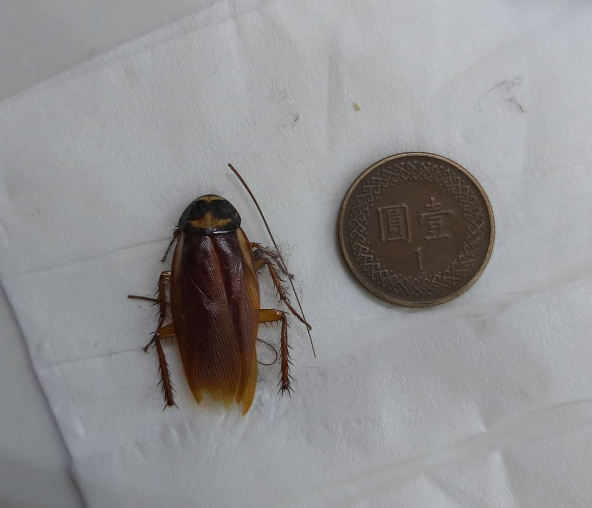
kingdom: Animalia
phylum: Arthropoda
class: Insecta
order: Blattodea
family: Blattidae
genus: Periplaneta
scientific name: Periplaneta australasiae
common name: Australian cockroach
